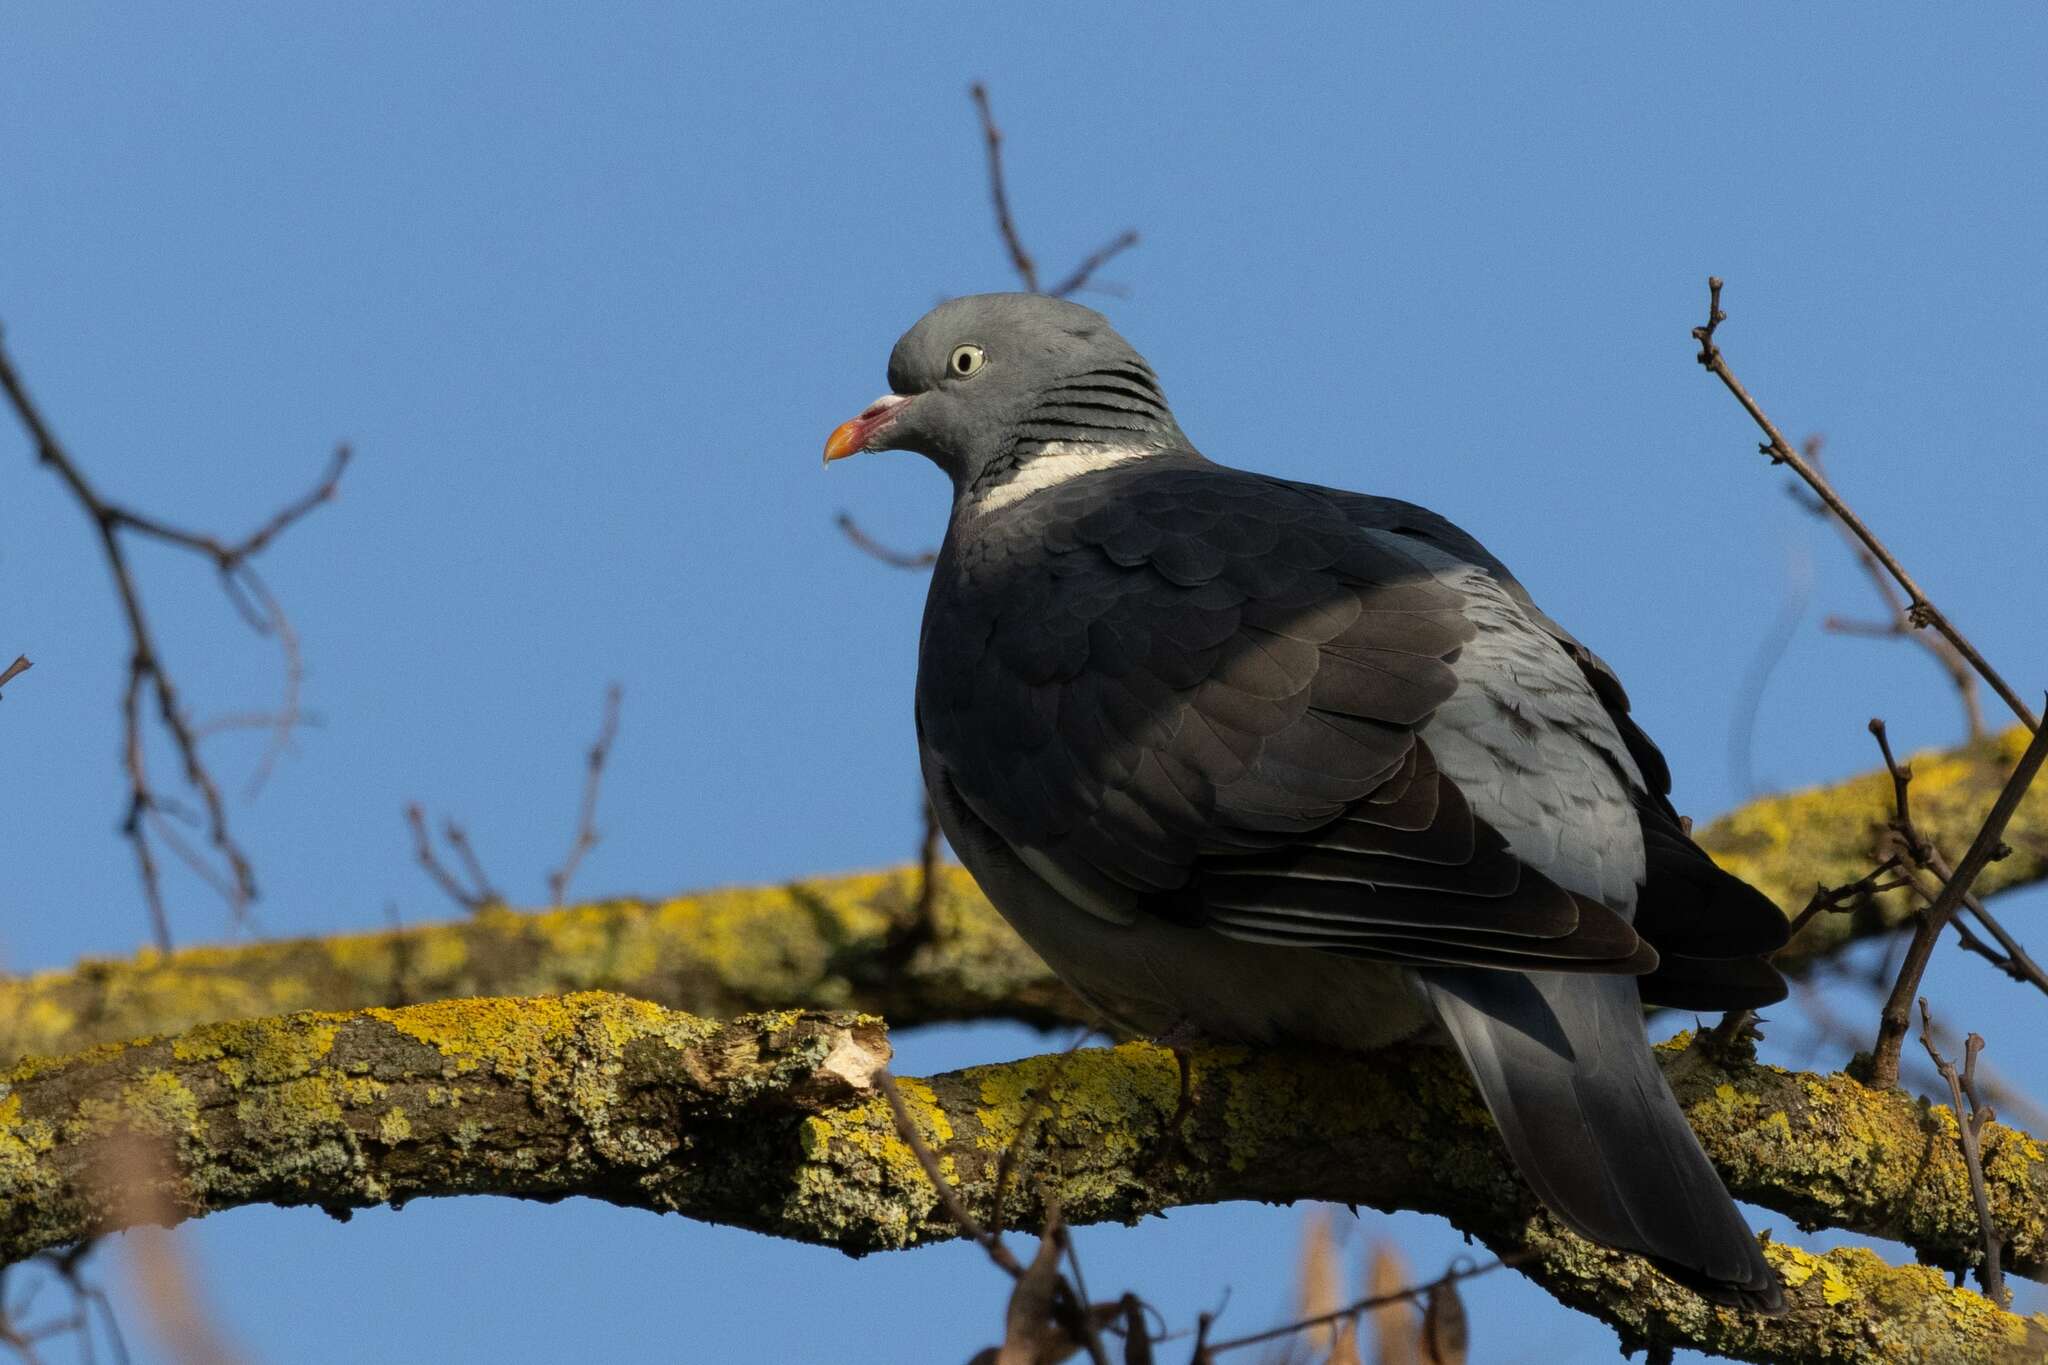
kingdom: Animalia
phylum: Chordata
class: Aves
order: Columbiformes
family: Columbidae
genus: Columba
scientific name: Columba palumbus
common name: Common wood pigeon
